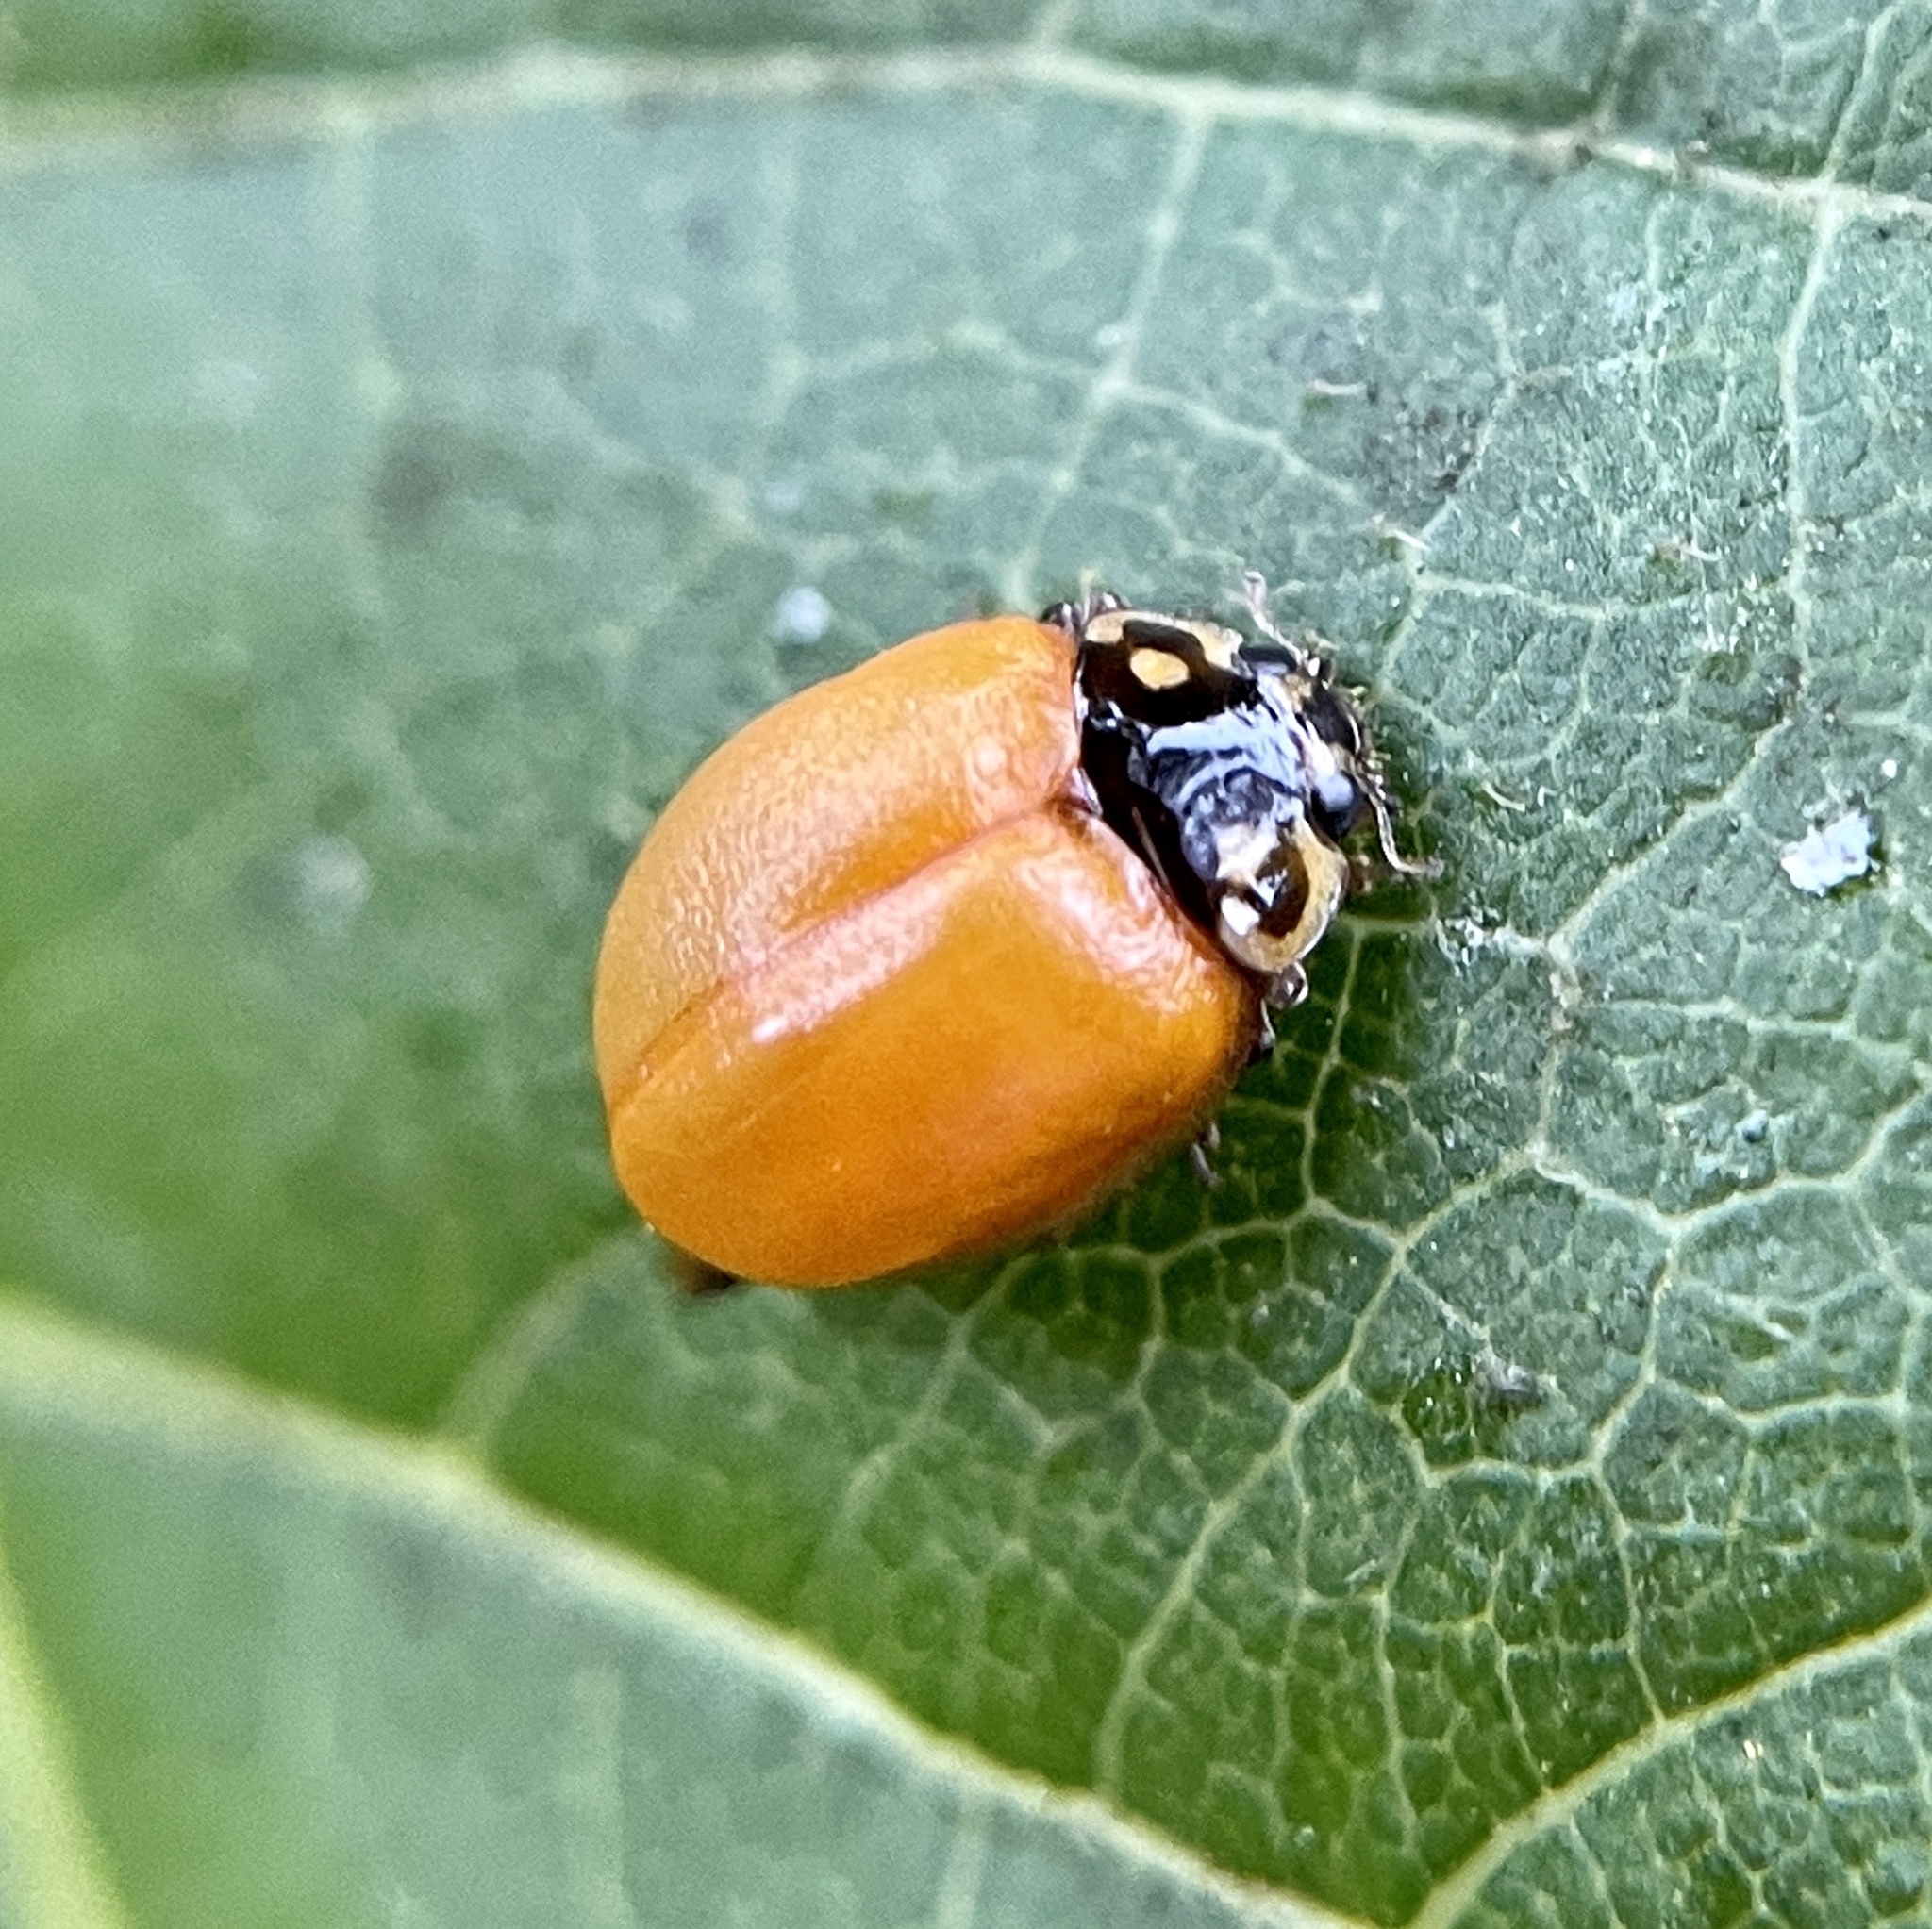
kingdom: Animalia
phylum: Arthropoda
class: Insecta
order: Coleoptera
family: Coccinellidae
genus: Cycloneda
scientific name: Cycloneda sanguinea
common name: Ladybird beetle
